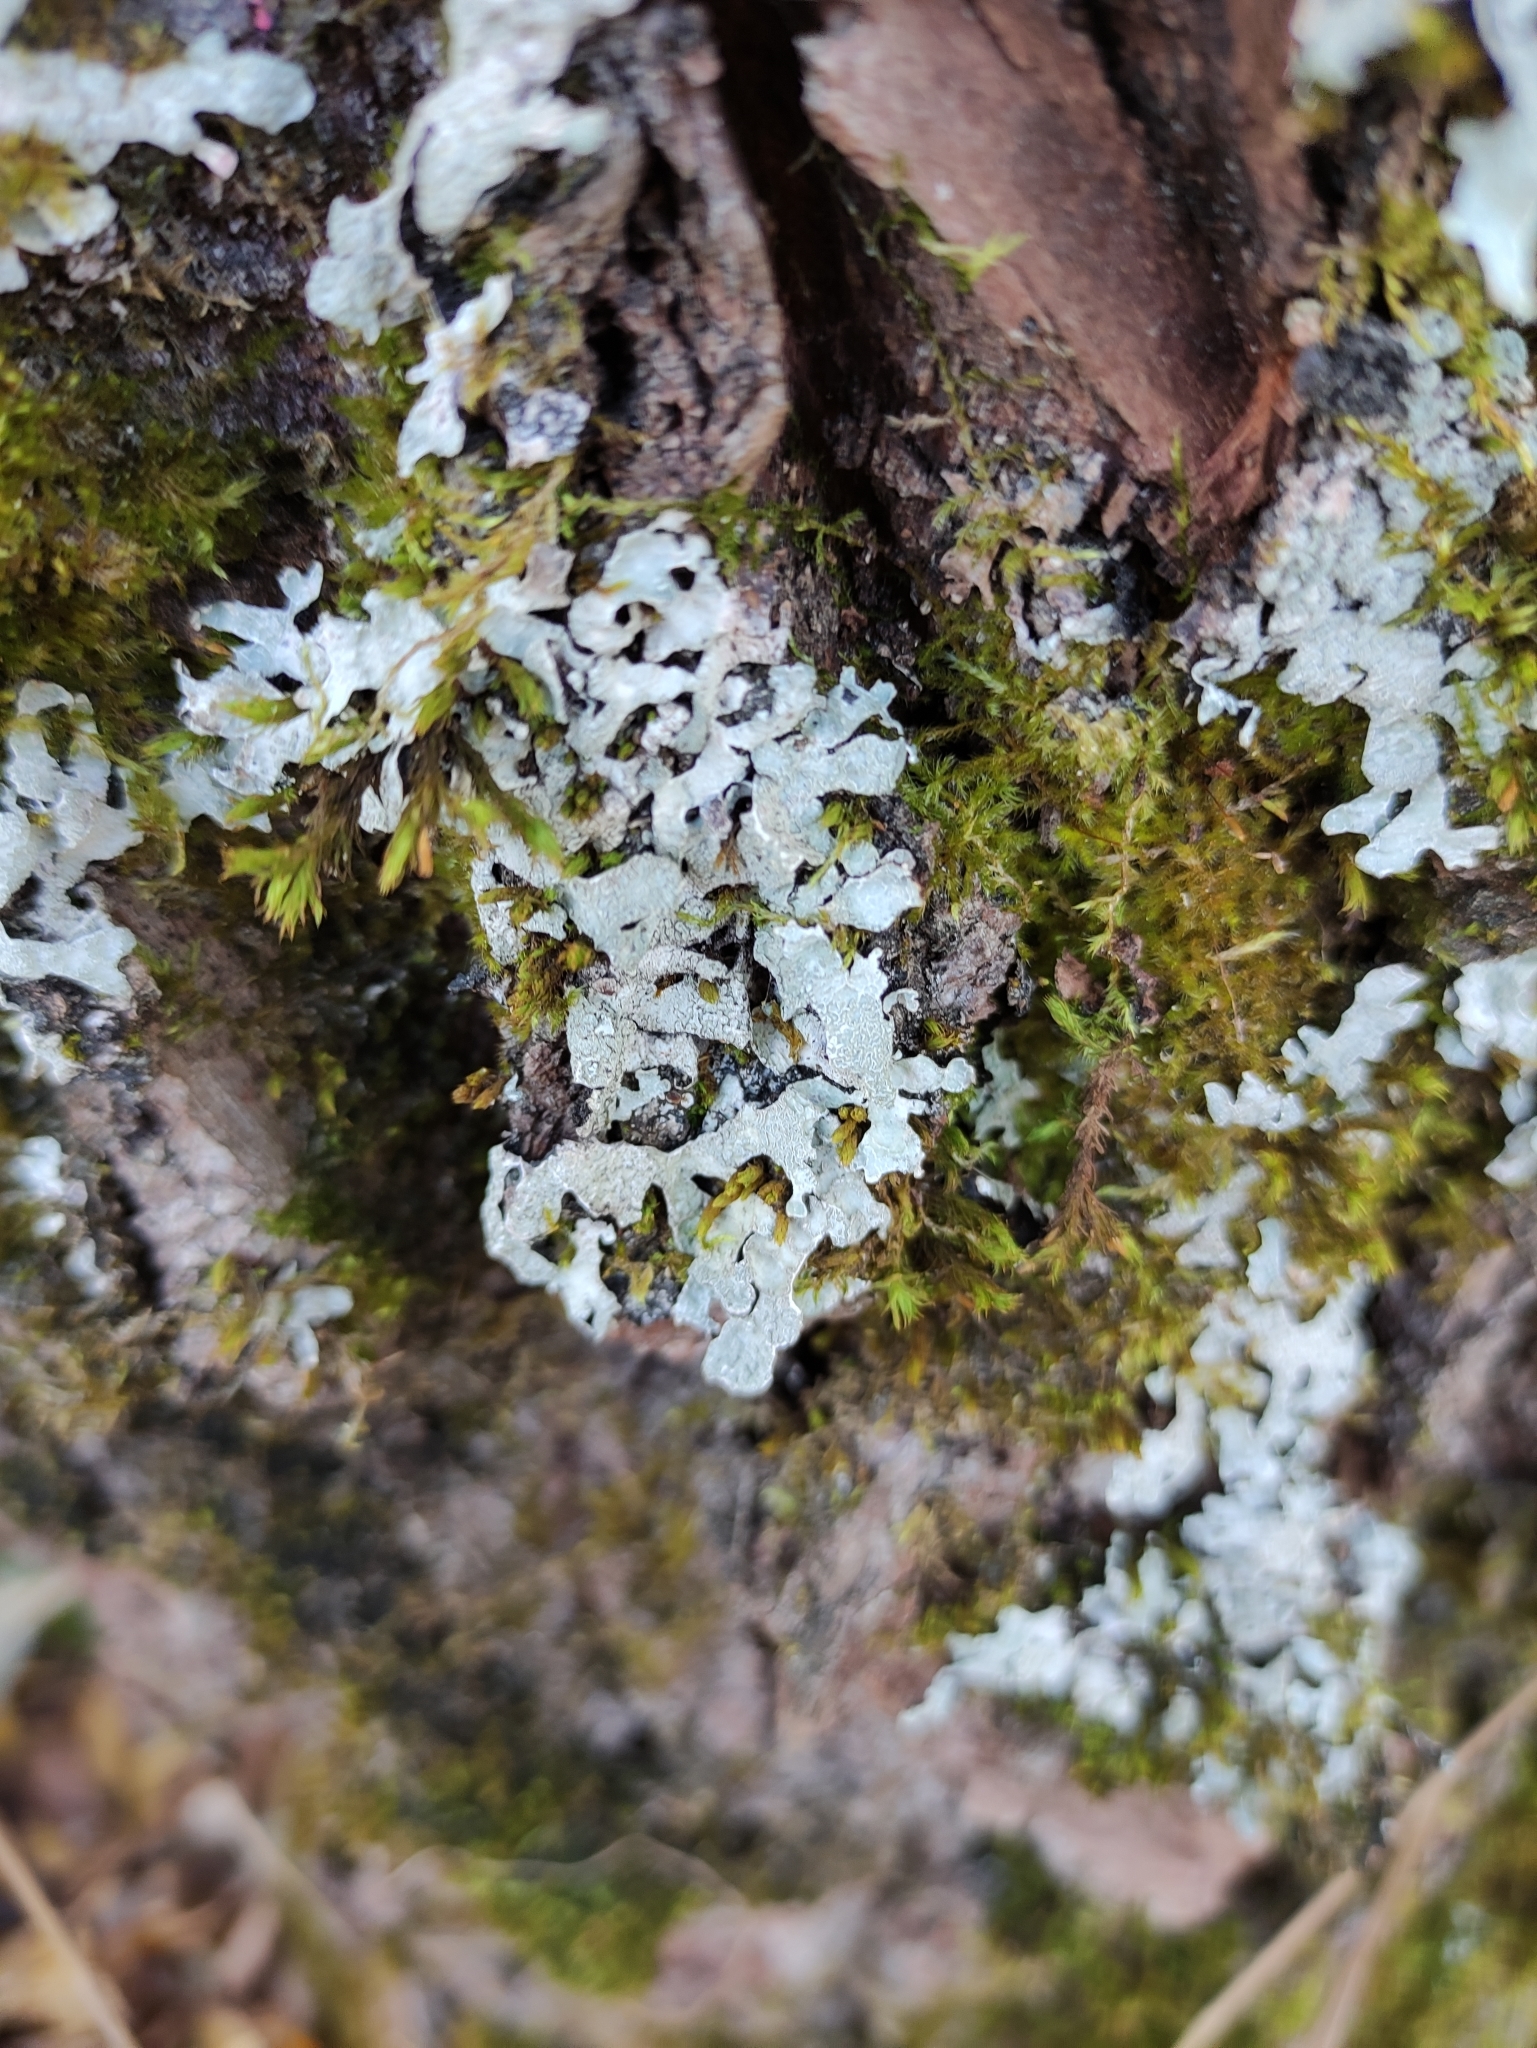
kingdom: Fungi
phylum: Ascomycota
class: Lecanoromycetes
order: Lecanorales
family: Parmeliaceae
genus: Parmelia
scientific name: Parmelia sulcata
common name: Netted shield lichen
